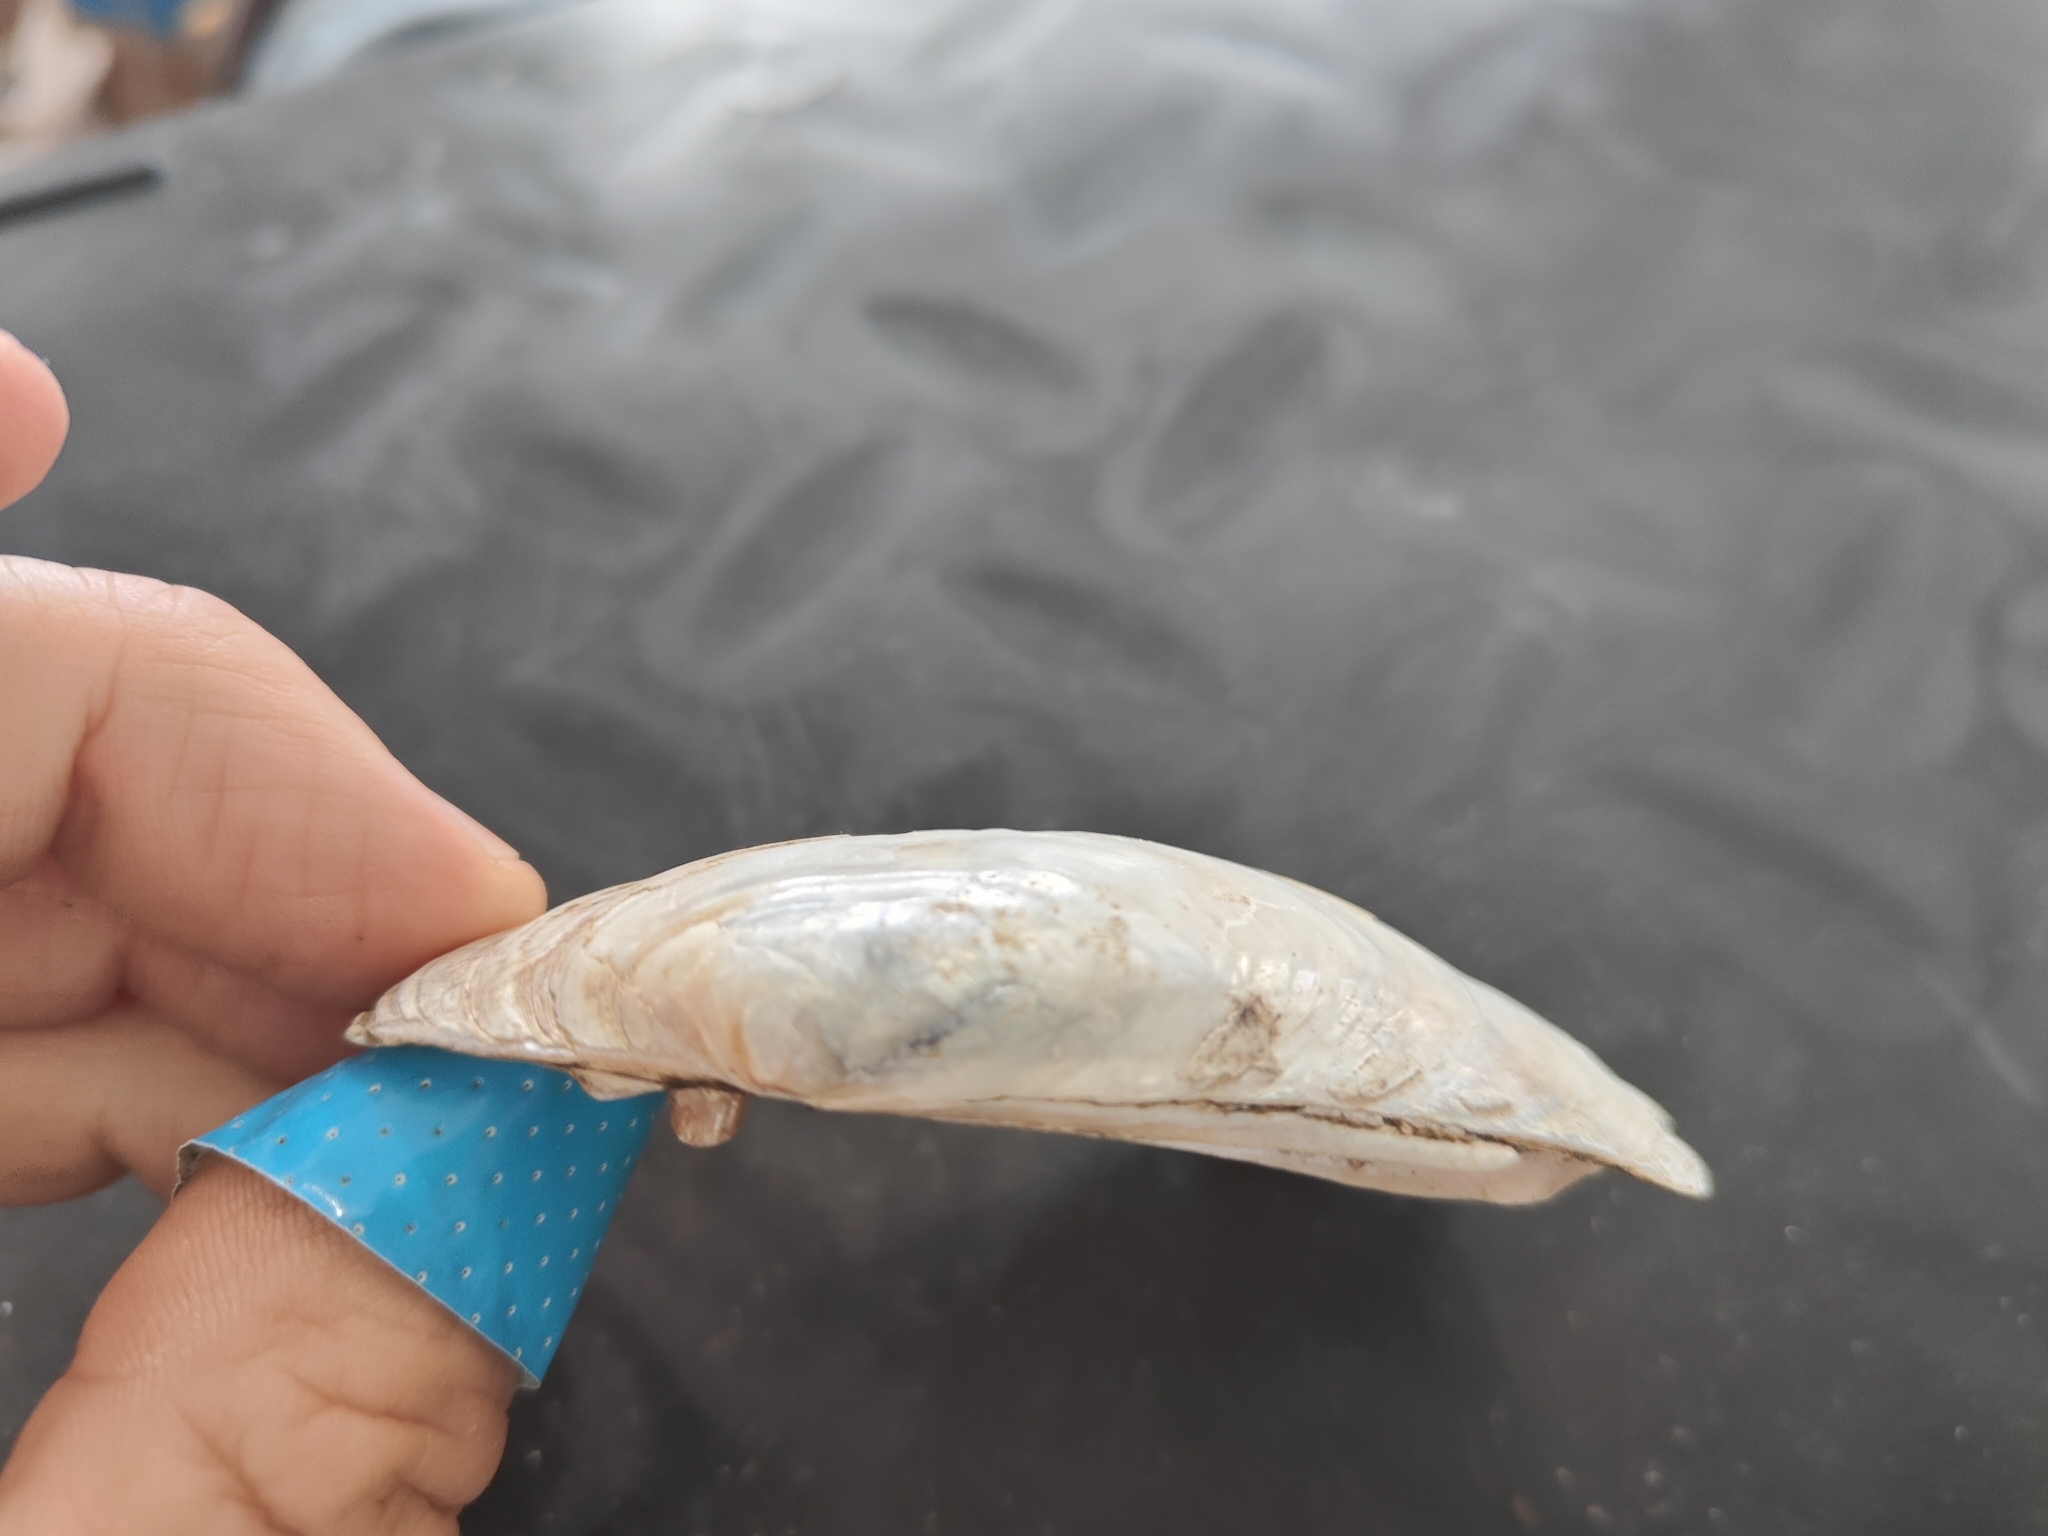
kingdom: Animalia
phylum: Mollusca
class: Bivalvia
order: Unionida
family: Unionidae
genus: Lampsilis
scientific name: Lampsilis siliquoidea
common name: Fatmucket
